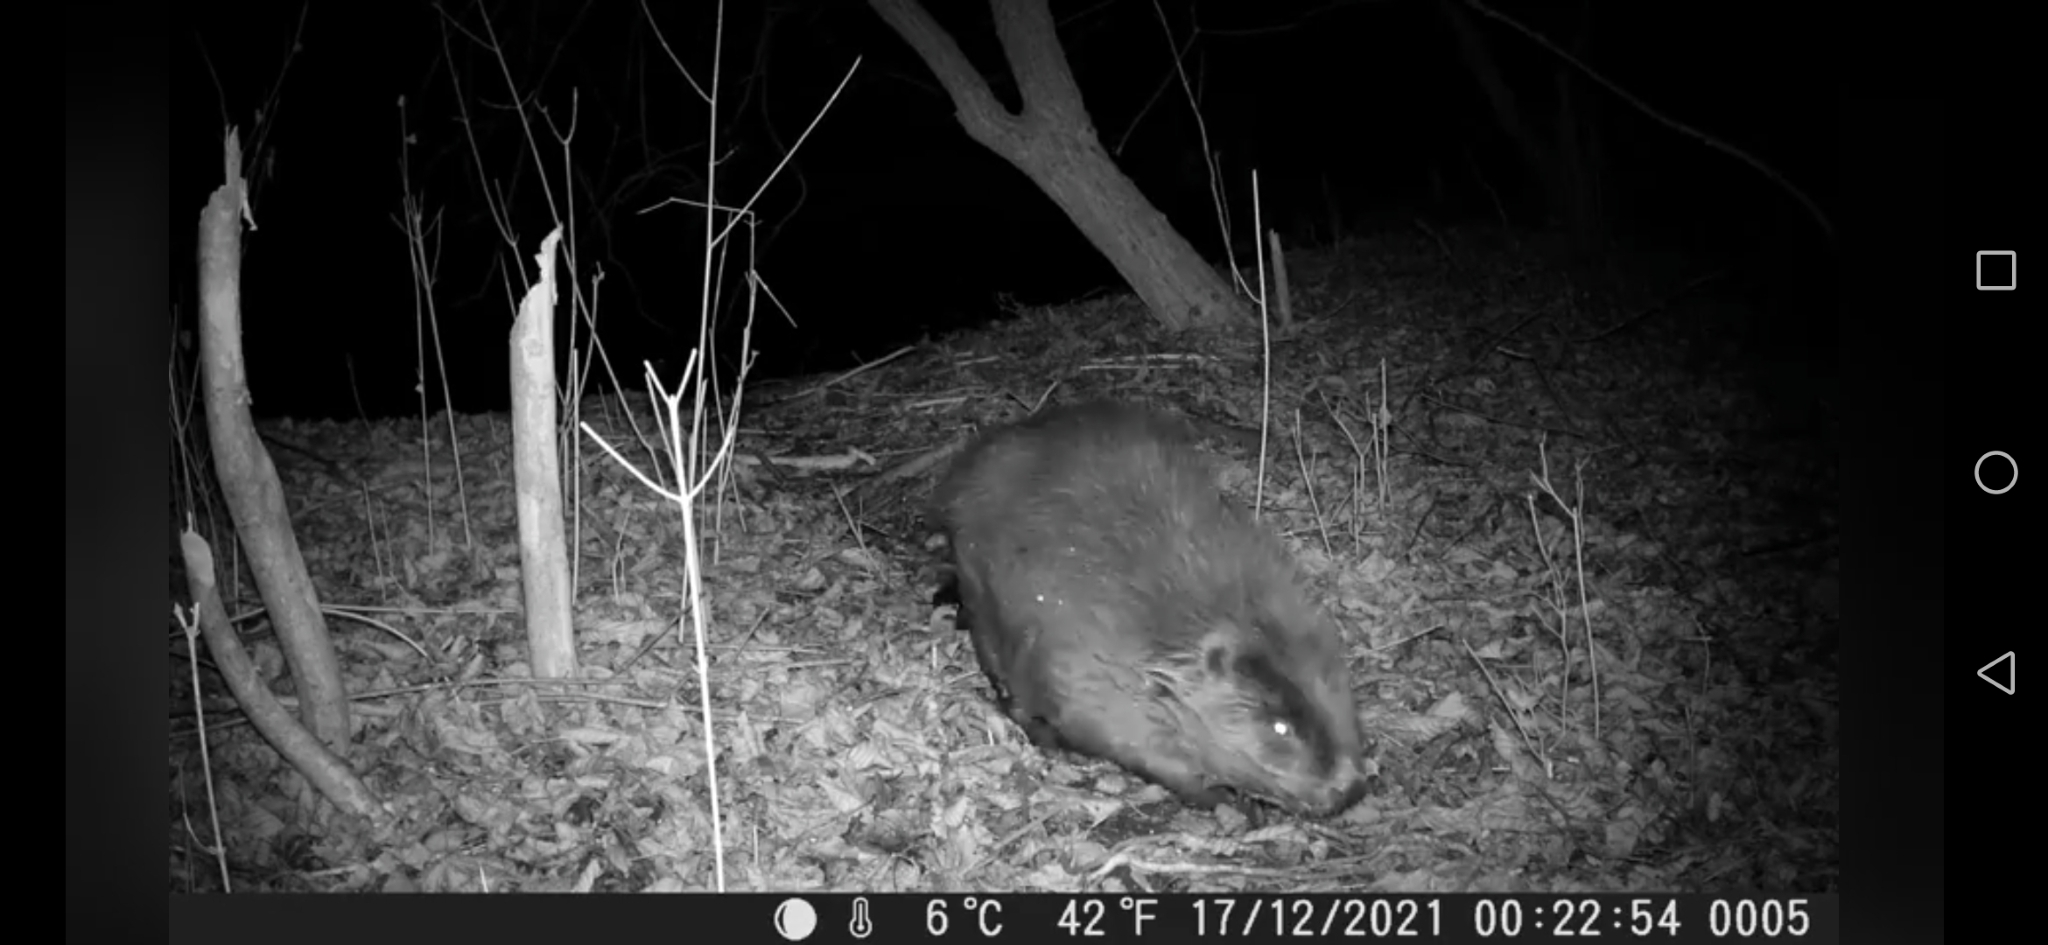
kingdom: Animalia
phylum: Chordata
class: Mammalia
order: Rodentia
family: Castoridae
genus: Castor
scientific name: Castor fiber
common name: Eurasian beaver
